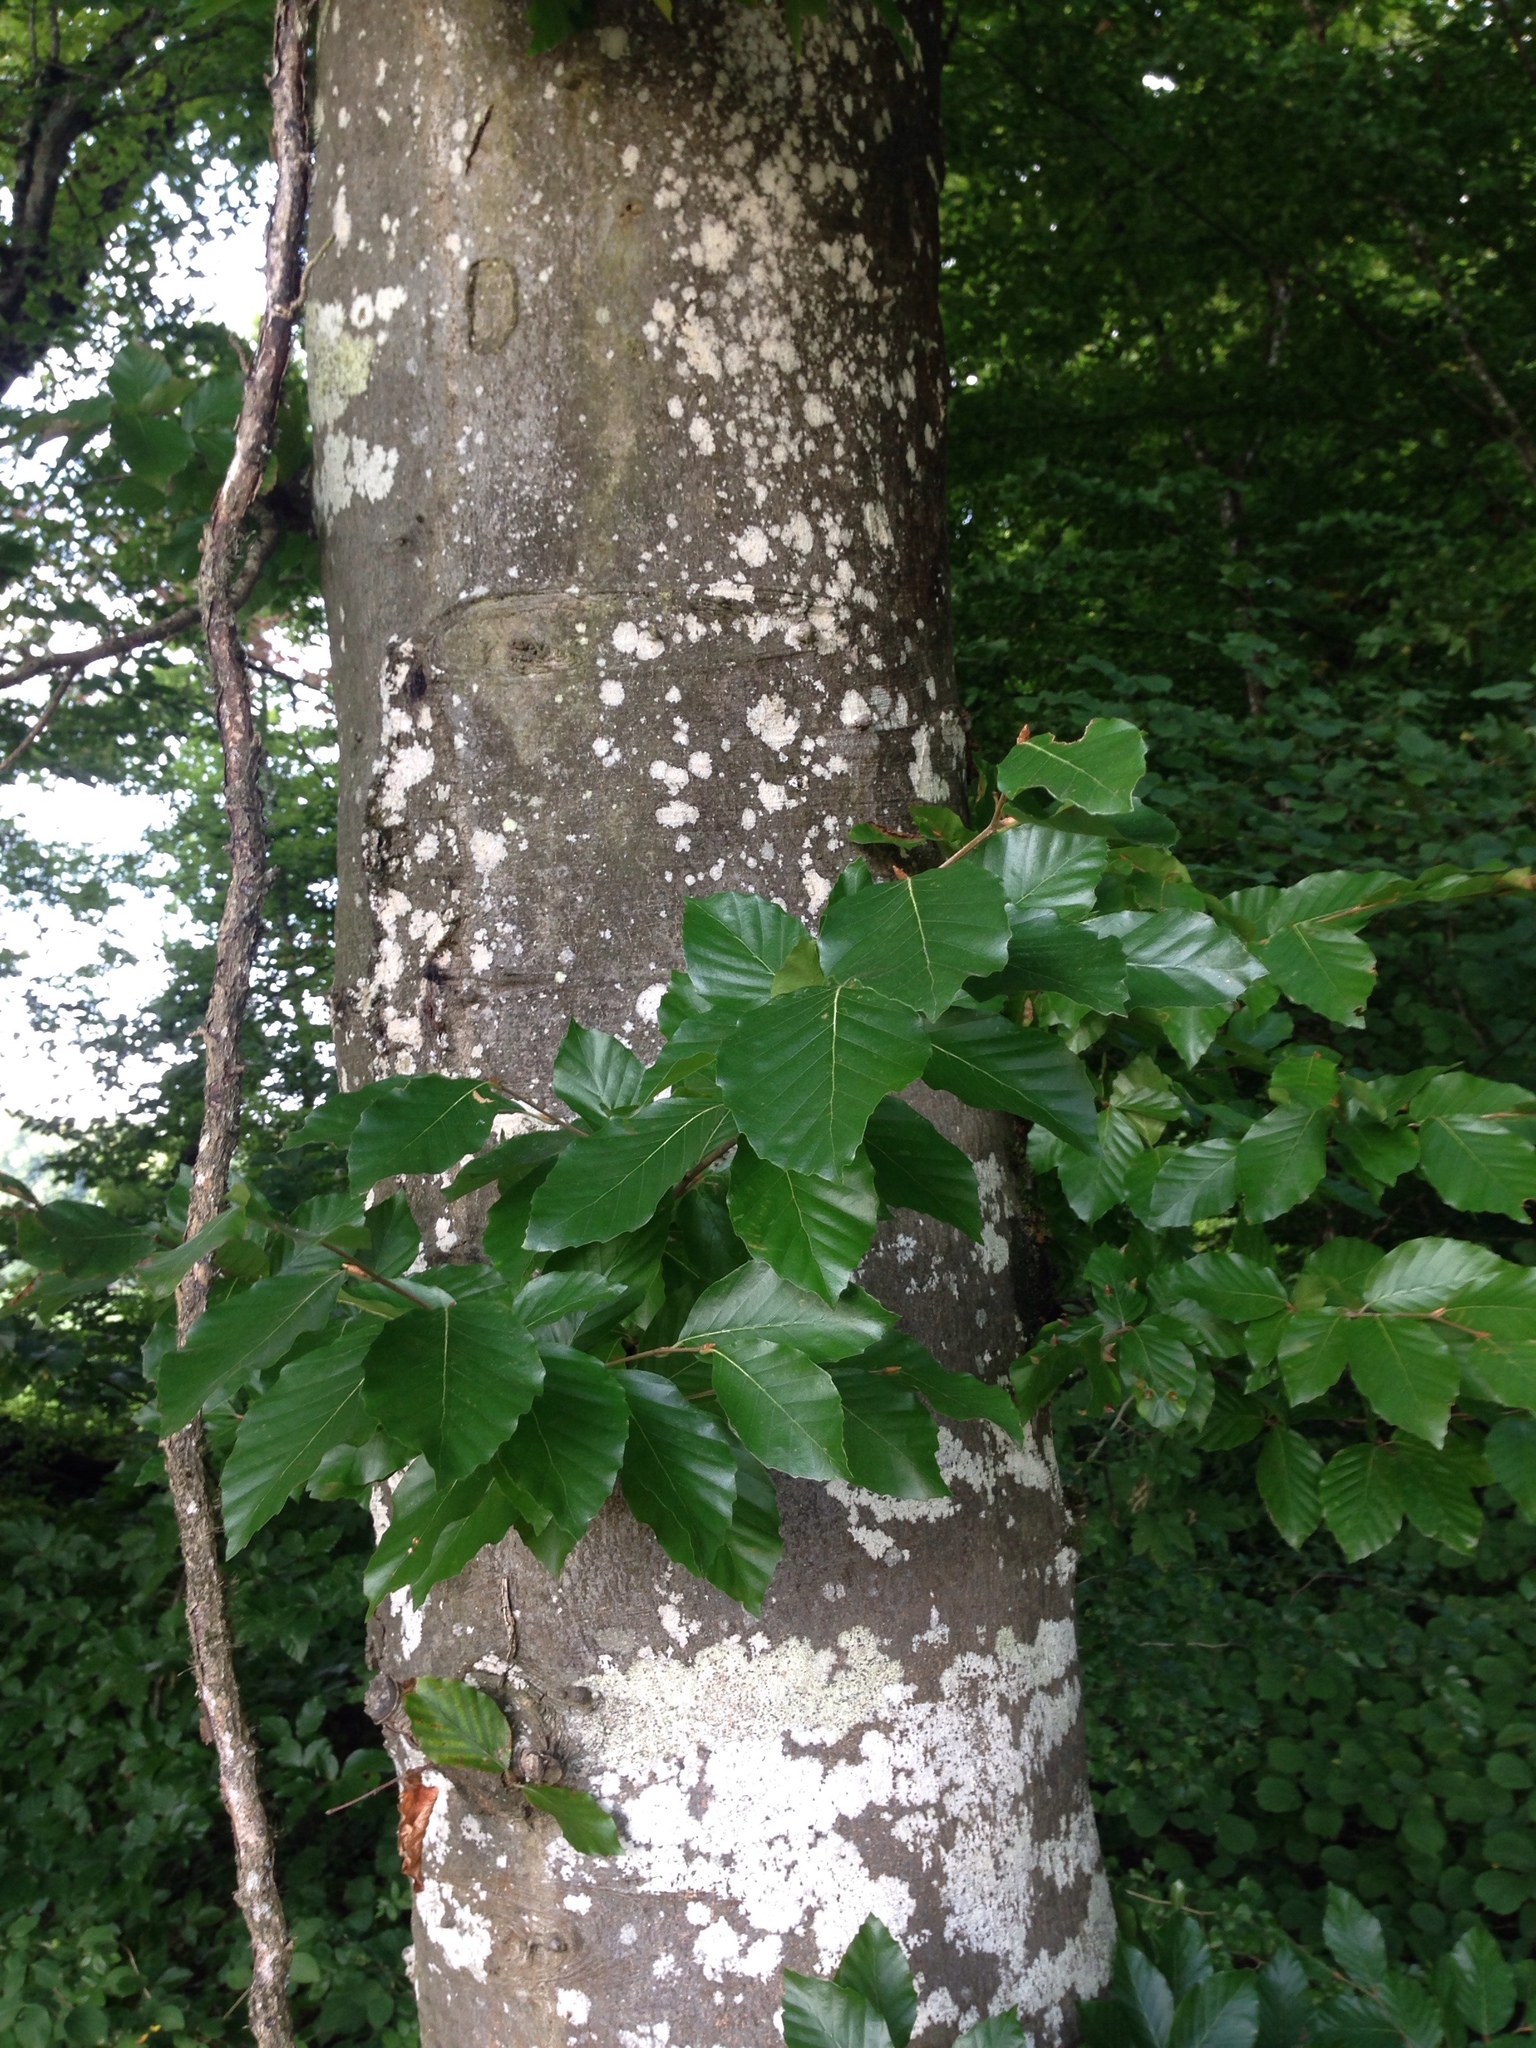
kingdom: Plantae
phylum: Tracheophyta
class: Magnoliopsida
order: Fagales
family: Fagaceae
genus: Fagus
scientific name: Fagus sylvatica
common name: Beech
